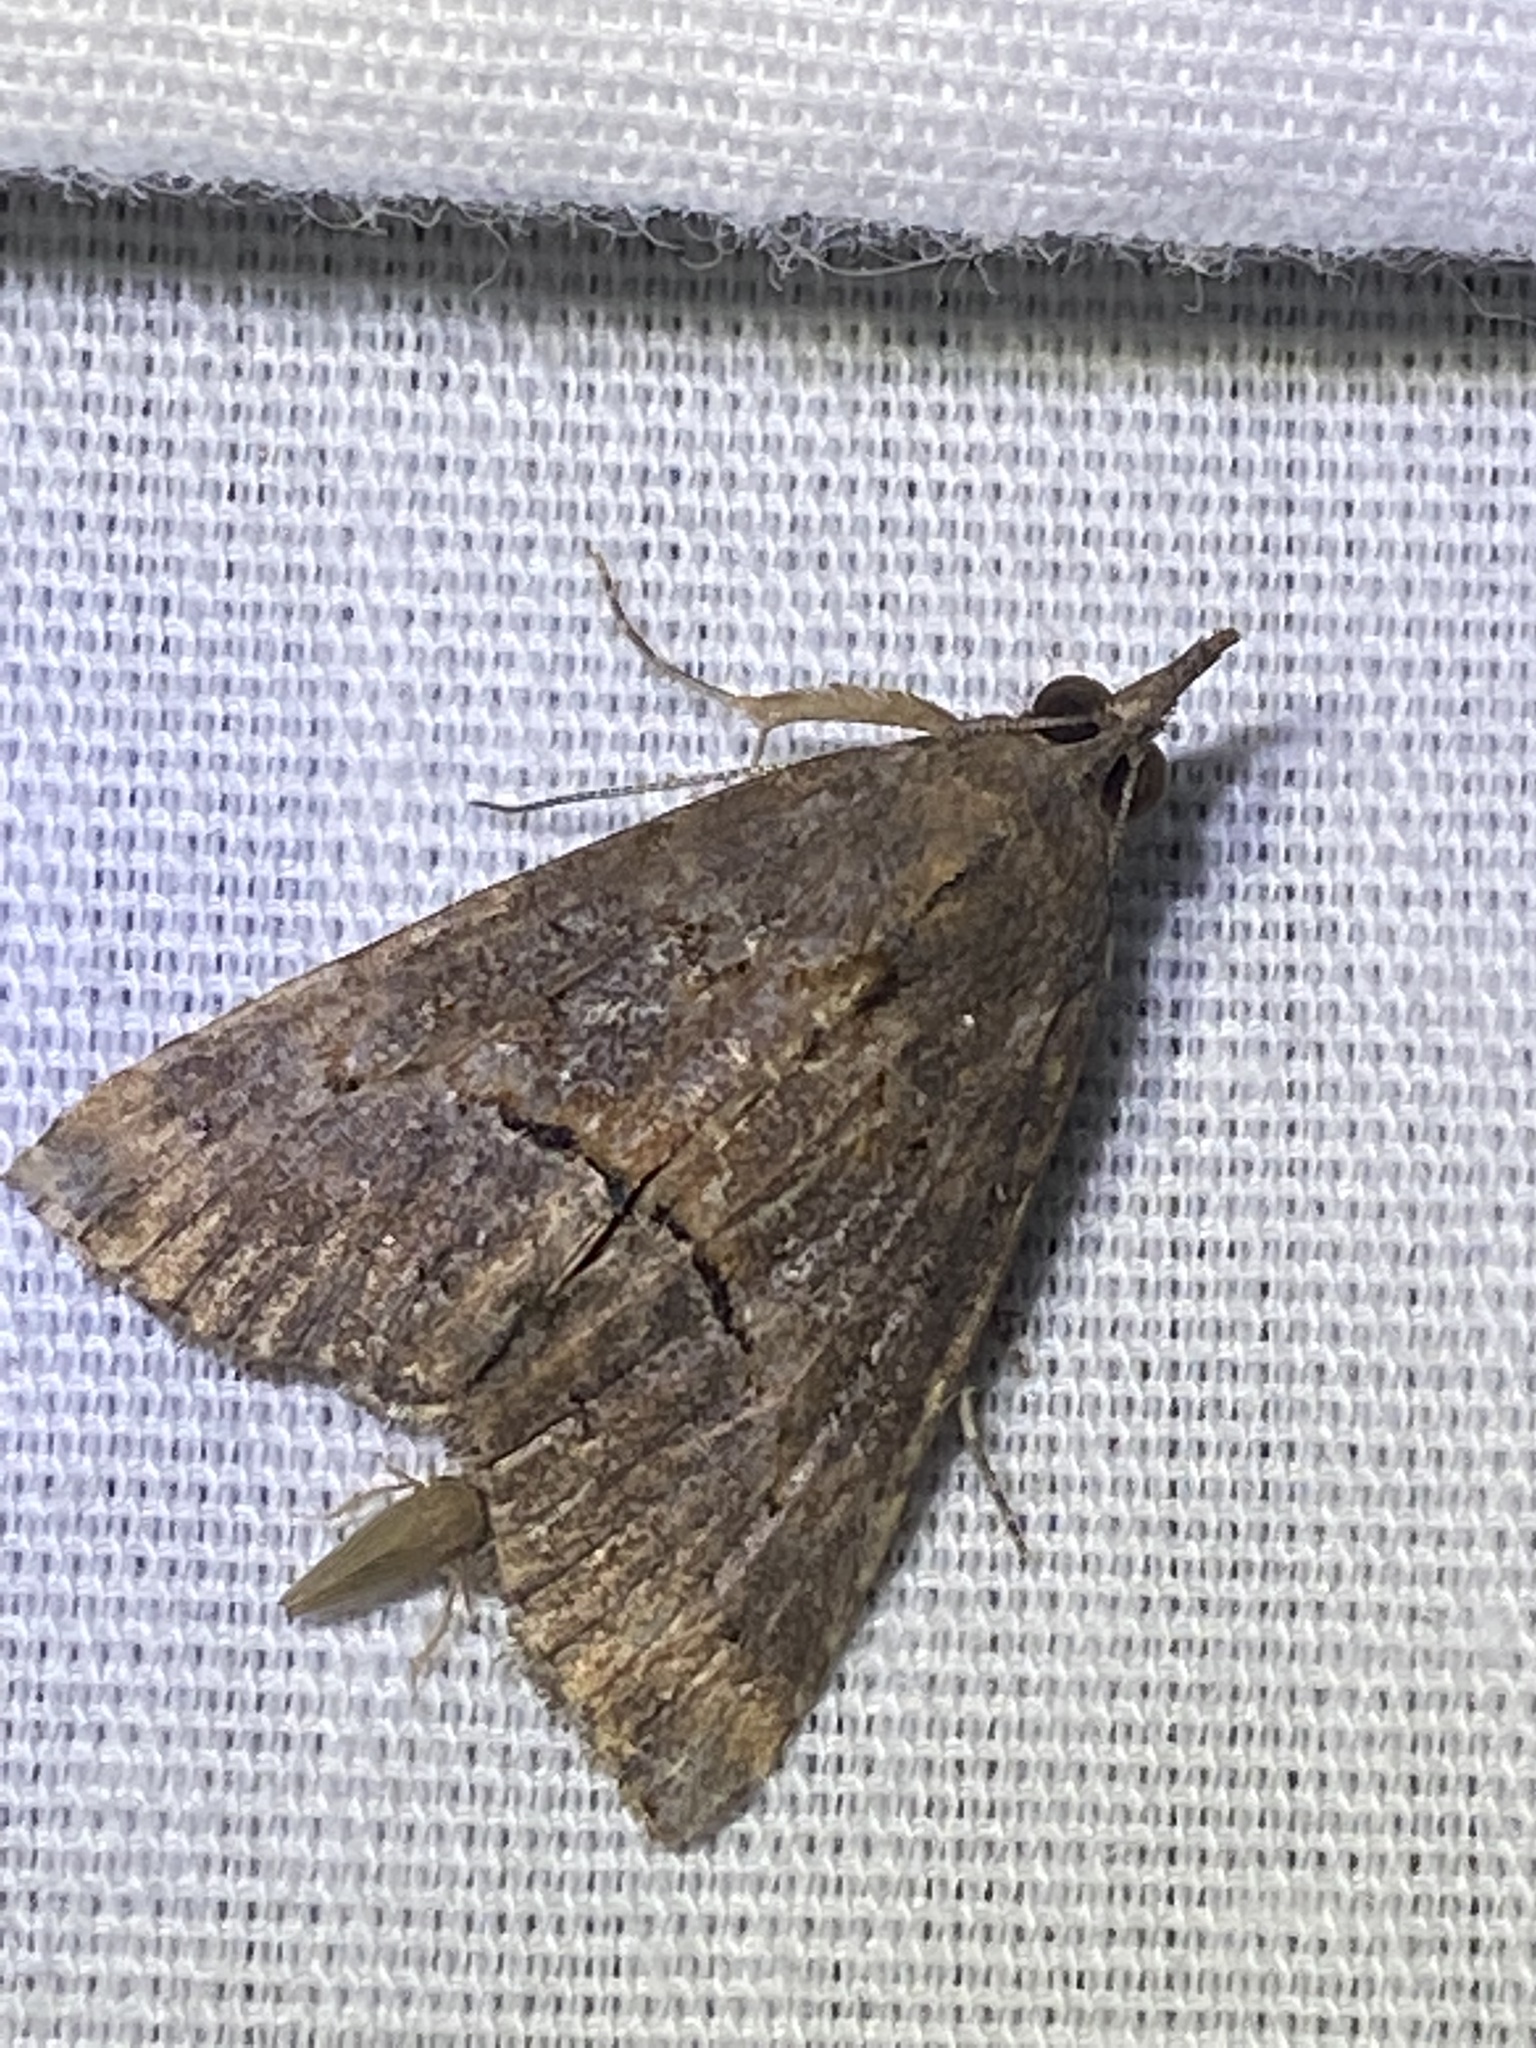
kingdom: Animalia
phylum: Arthropoda
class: Insecta
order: Lepidoptera
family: Erebidae
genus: Hypena
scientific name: Hypena scabra
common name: Green cloverworm
